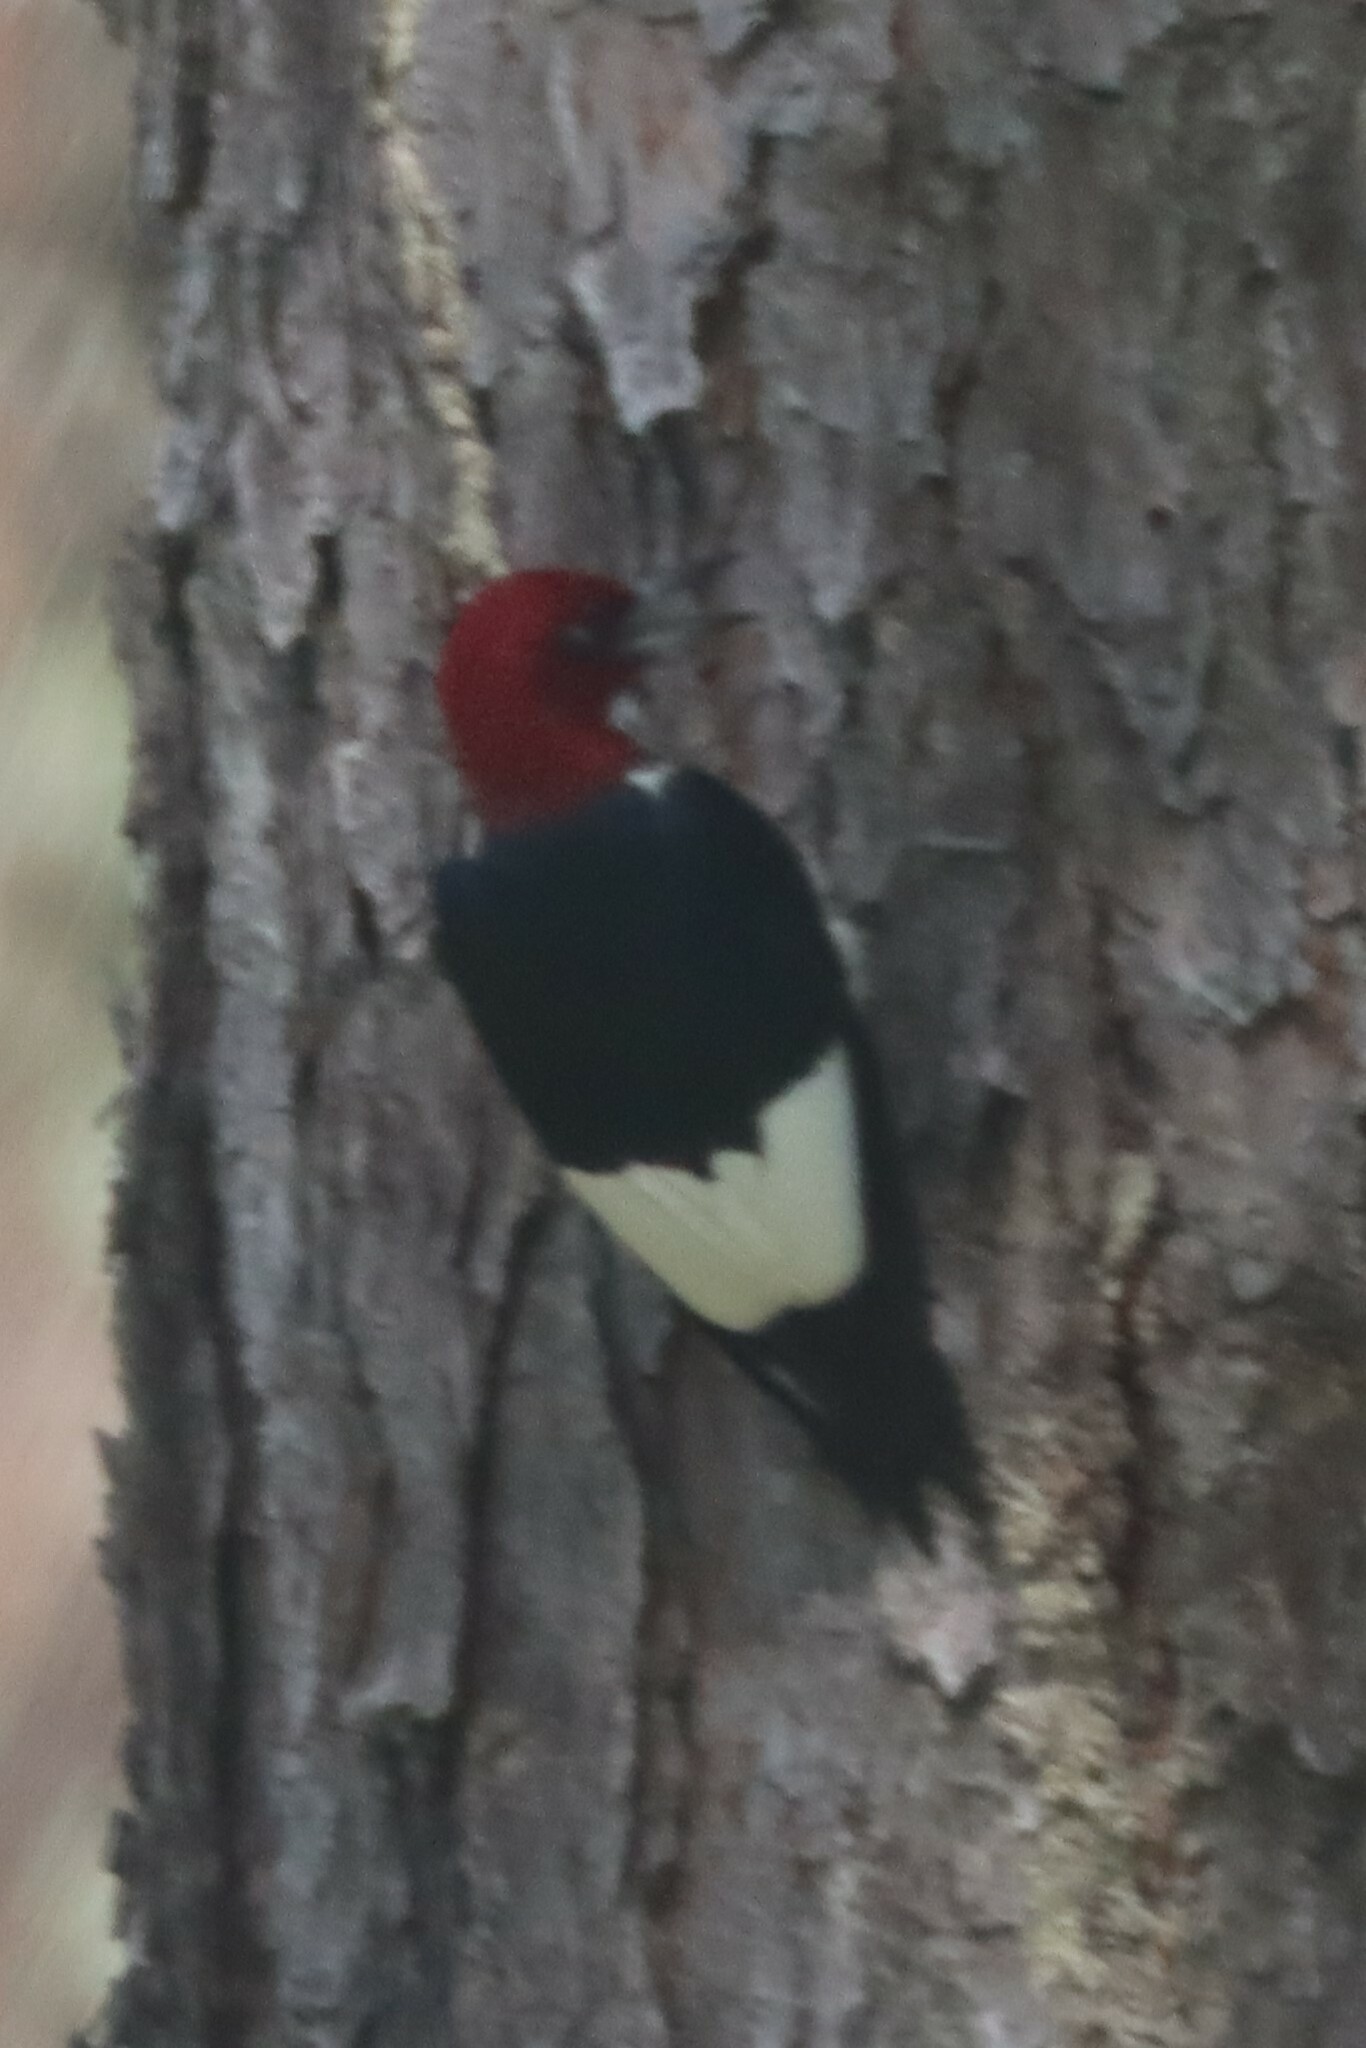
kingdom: Animalia
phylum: Chordata
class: Aves
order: Piciformes
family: Picidae
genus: Melanerpes
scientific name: Melanerpes erythrocephalus
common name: Red-headed woodpecker
